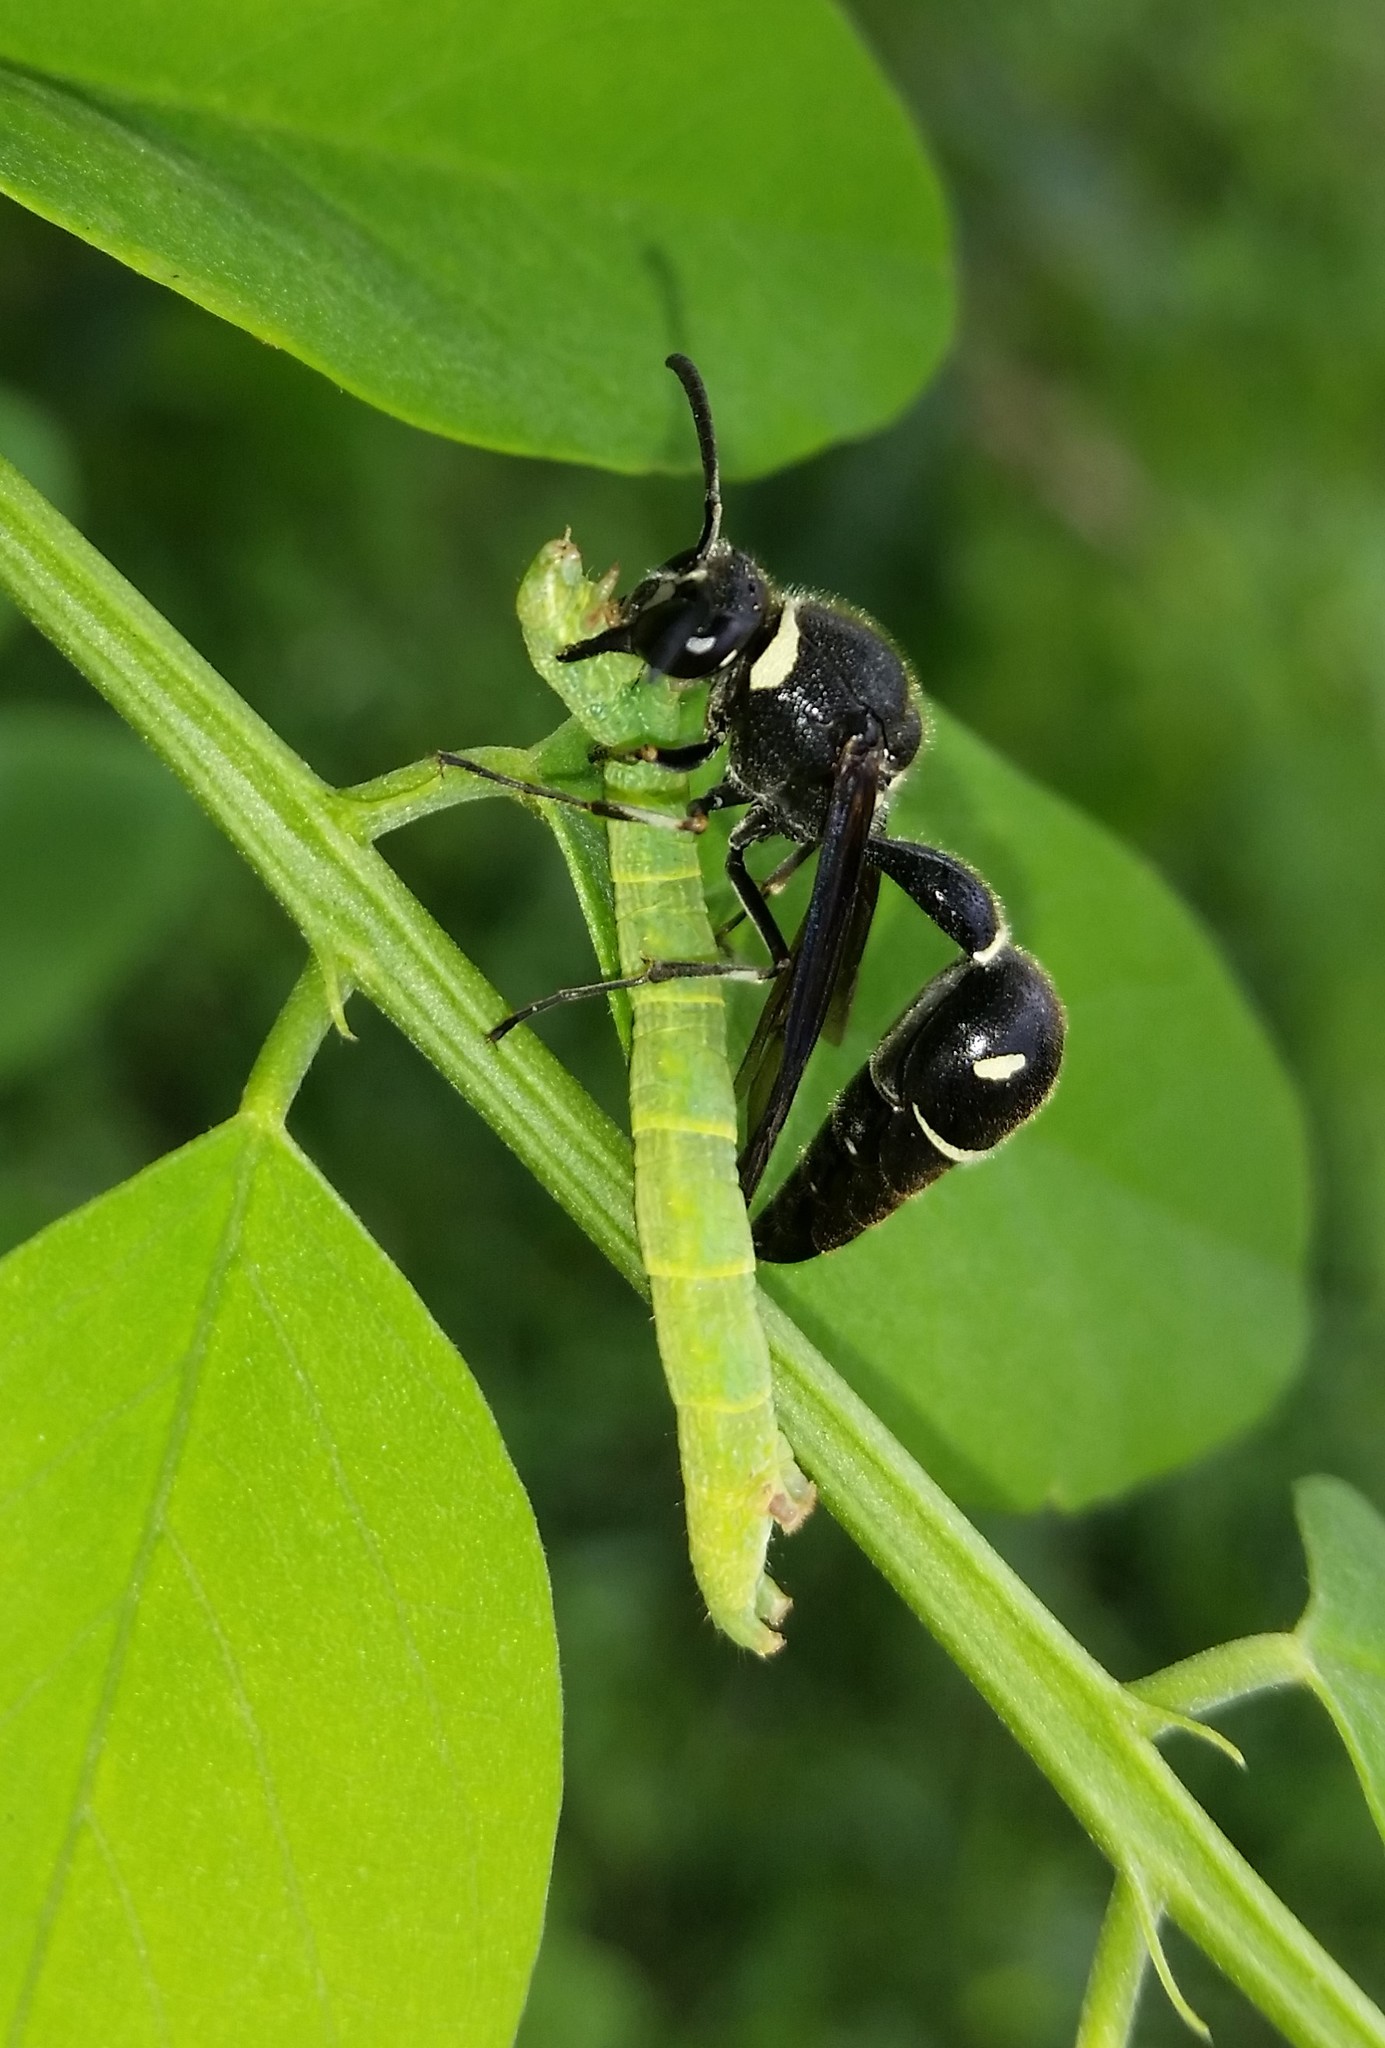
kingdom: Animalia
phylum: Arthropoda
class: Insecta
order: Hymenoptera
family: Vespidae
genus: Eumenes
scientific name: Eumenes fraternus
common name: Fraternal potter wasp
